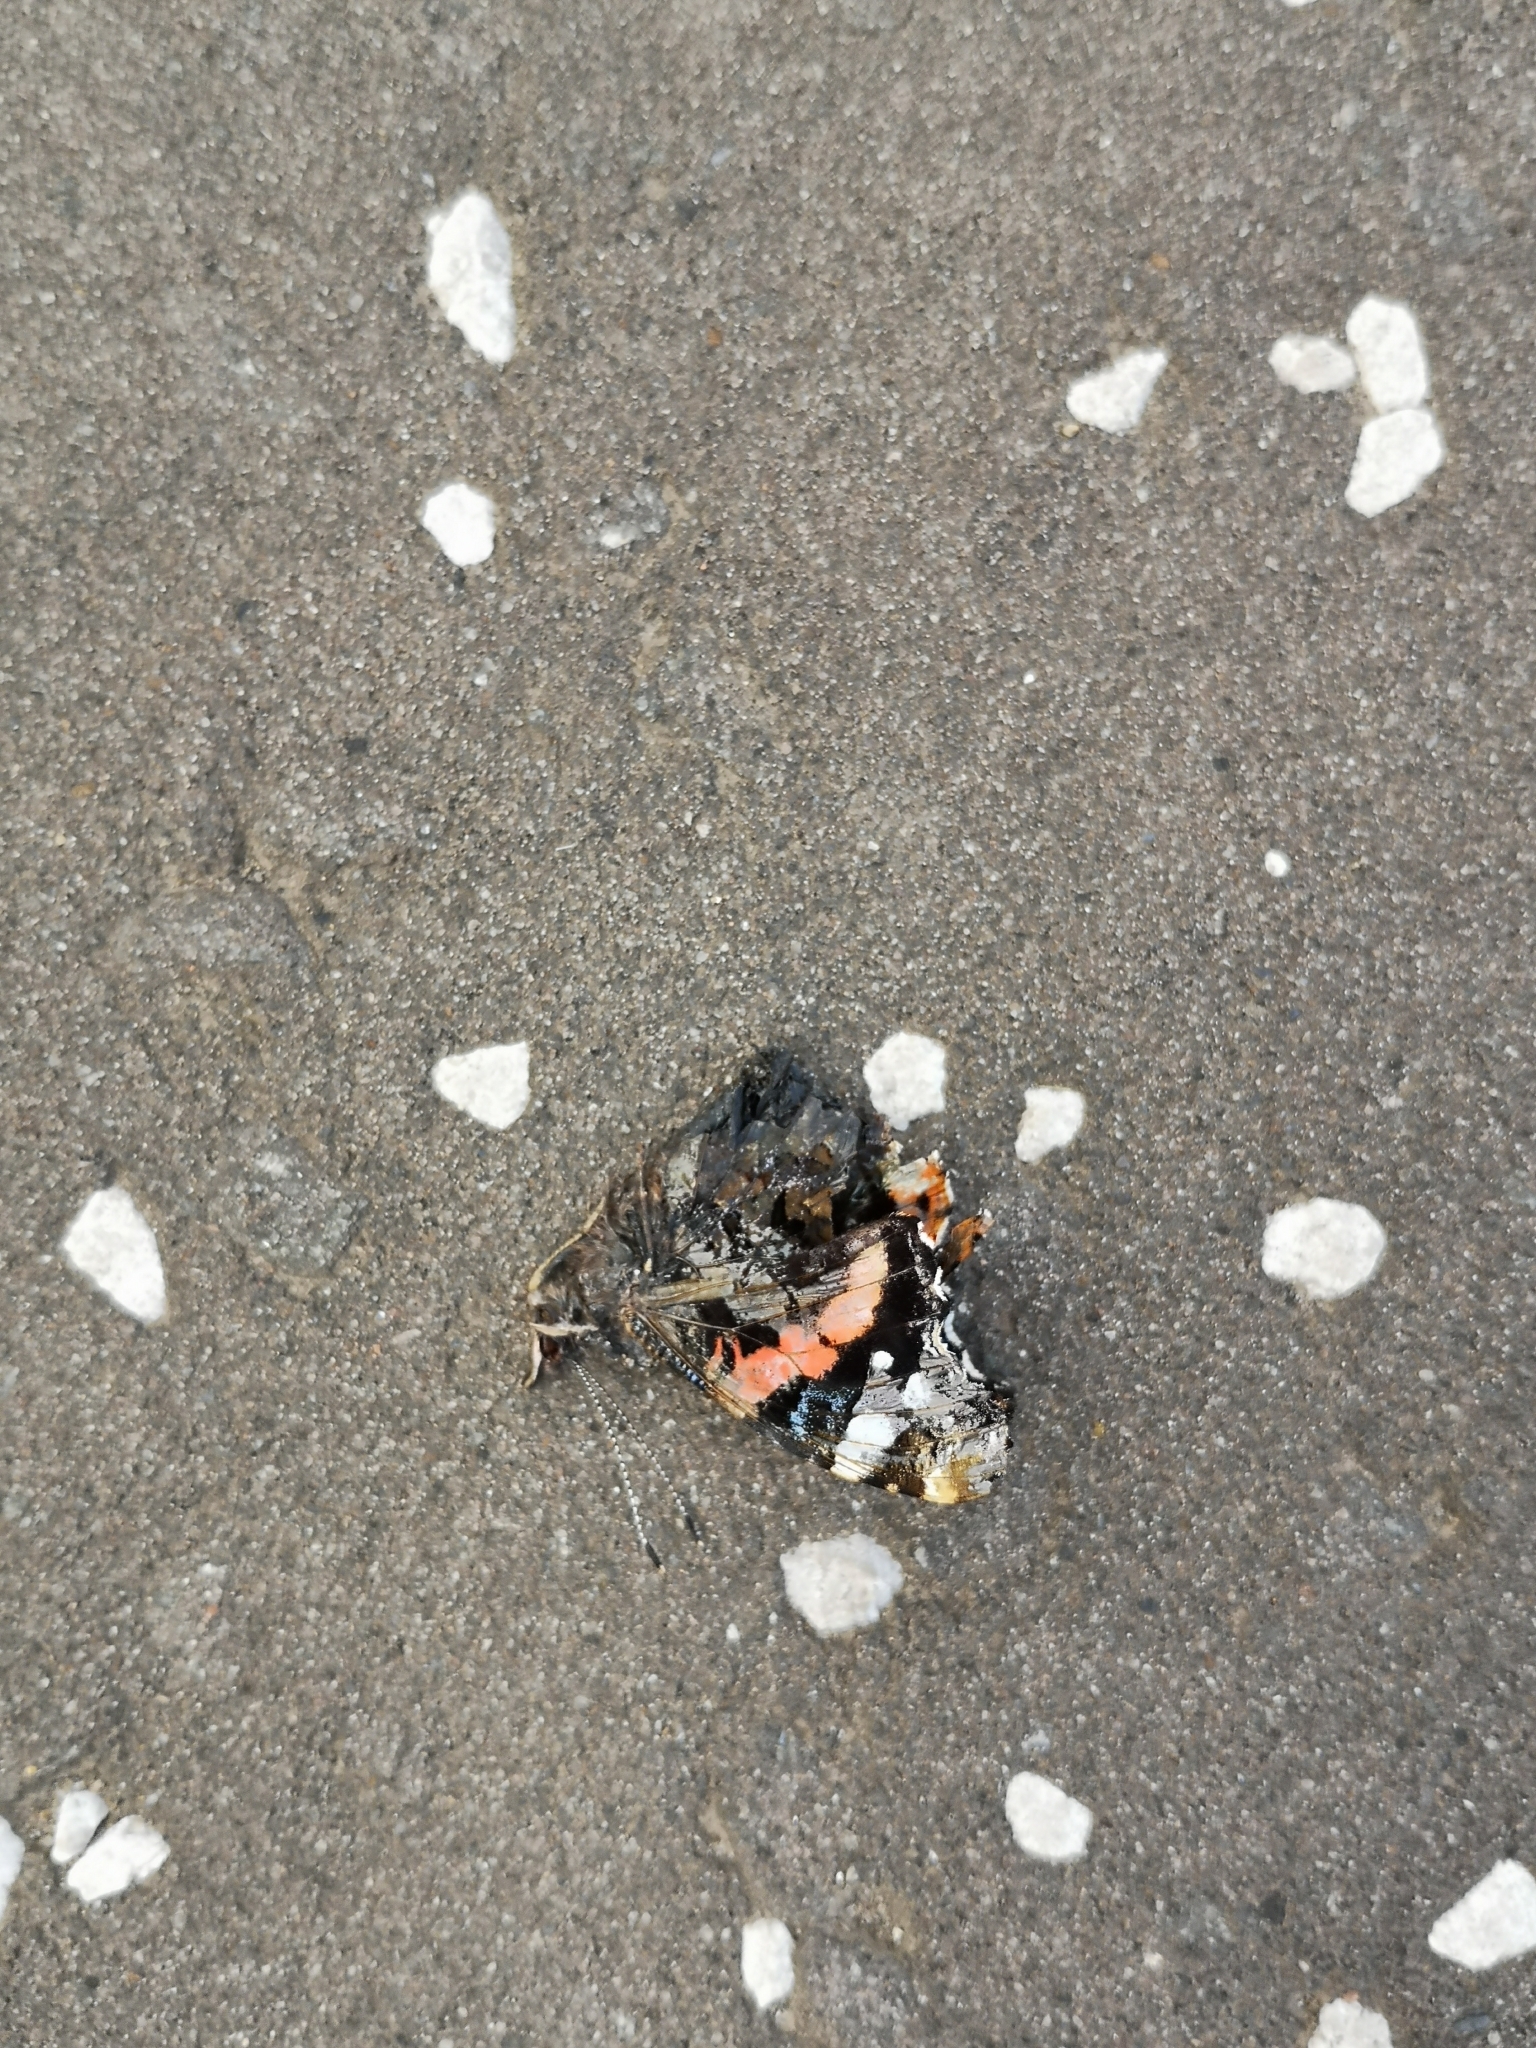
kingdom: Animalia
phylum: Arthropoda
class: Insecta
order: Lepidoptera
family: Nymphalidae
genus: Vanessa
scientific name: Vanessa atalanta
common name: Red admiral
